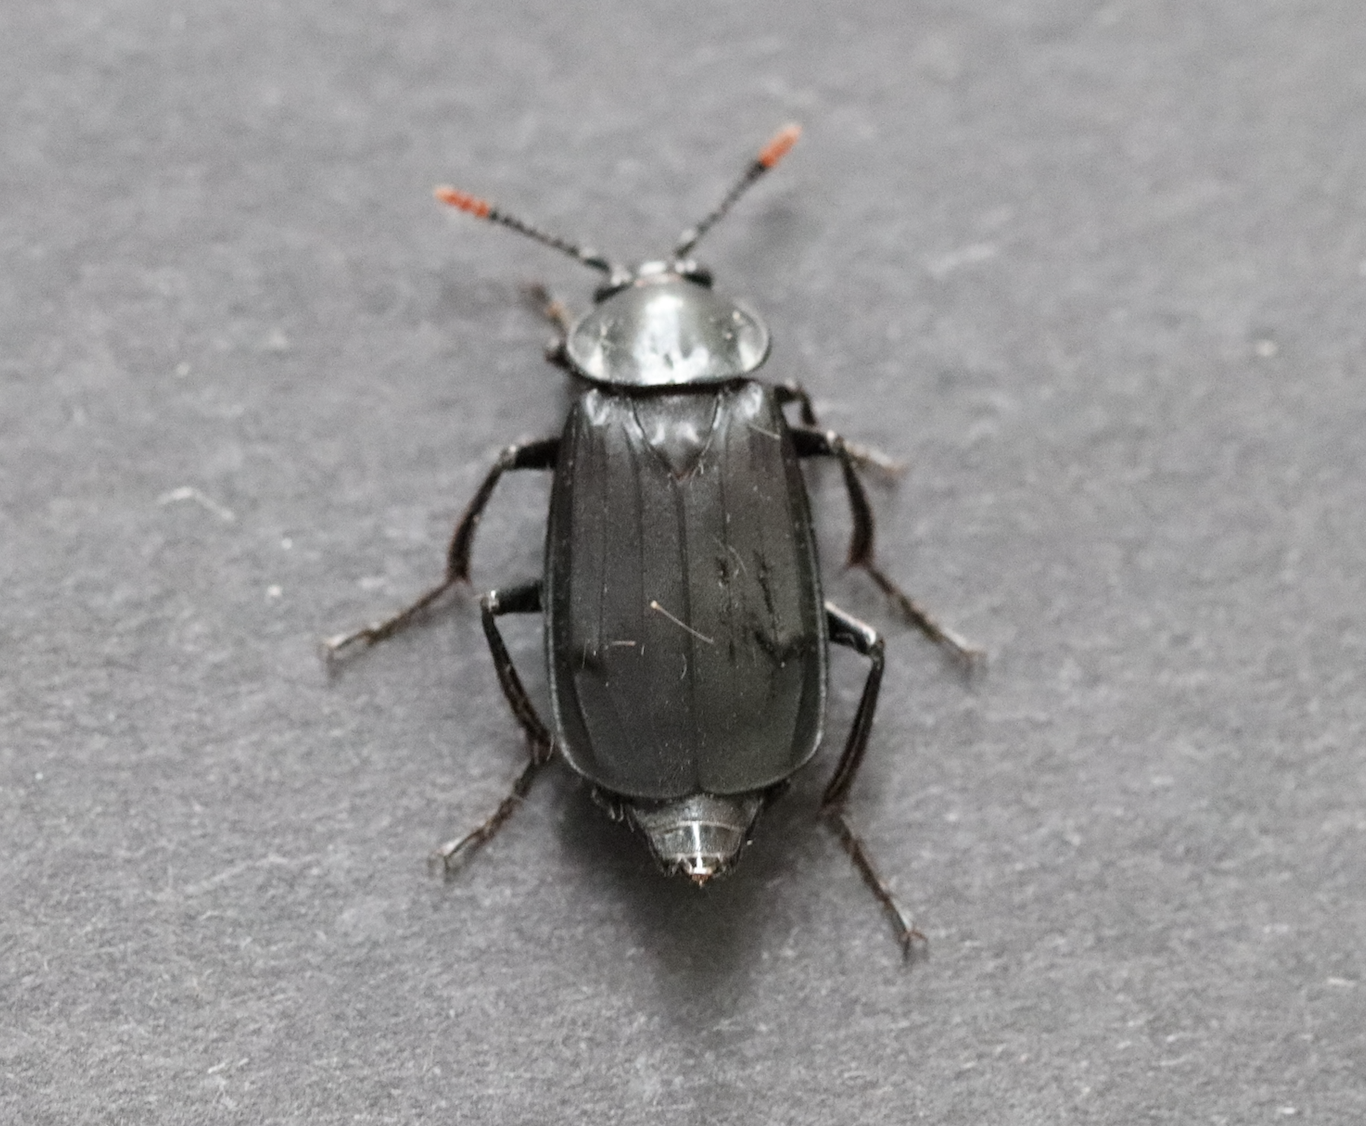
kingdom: Animalia
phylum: Arthropoda
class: Insecta
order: Coleoptera
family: Staphylinidae
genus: Necrodes
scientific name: Necrodes littoralis
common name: Shore sexton beetle
